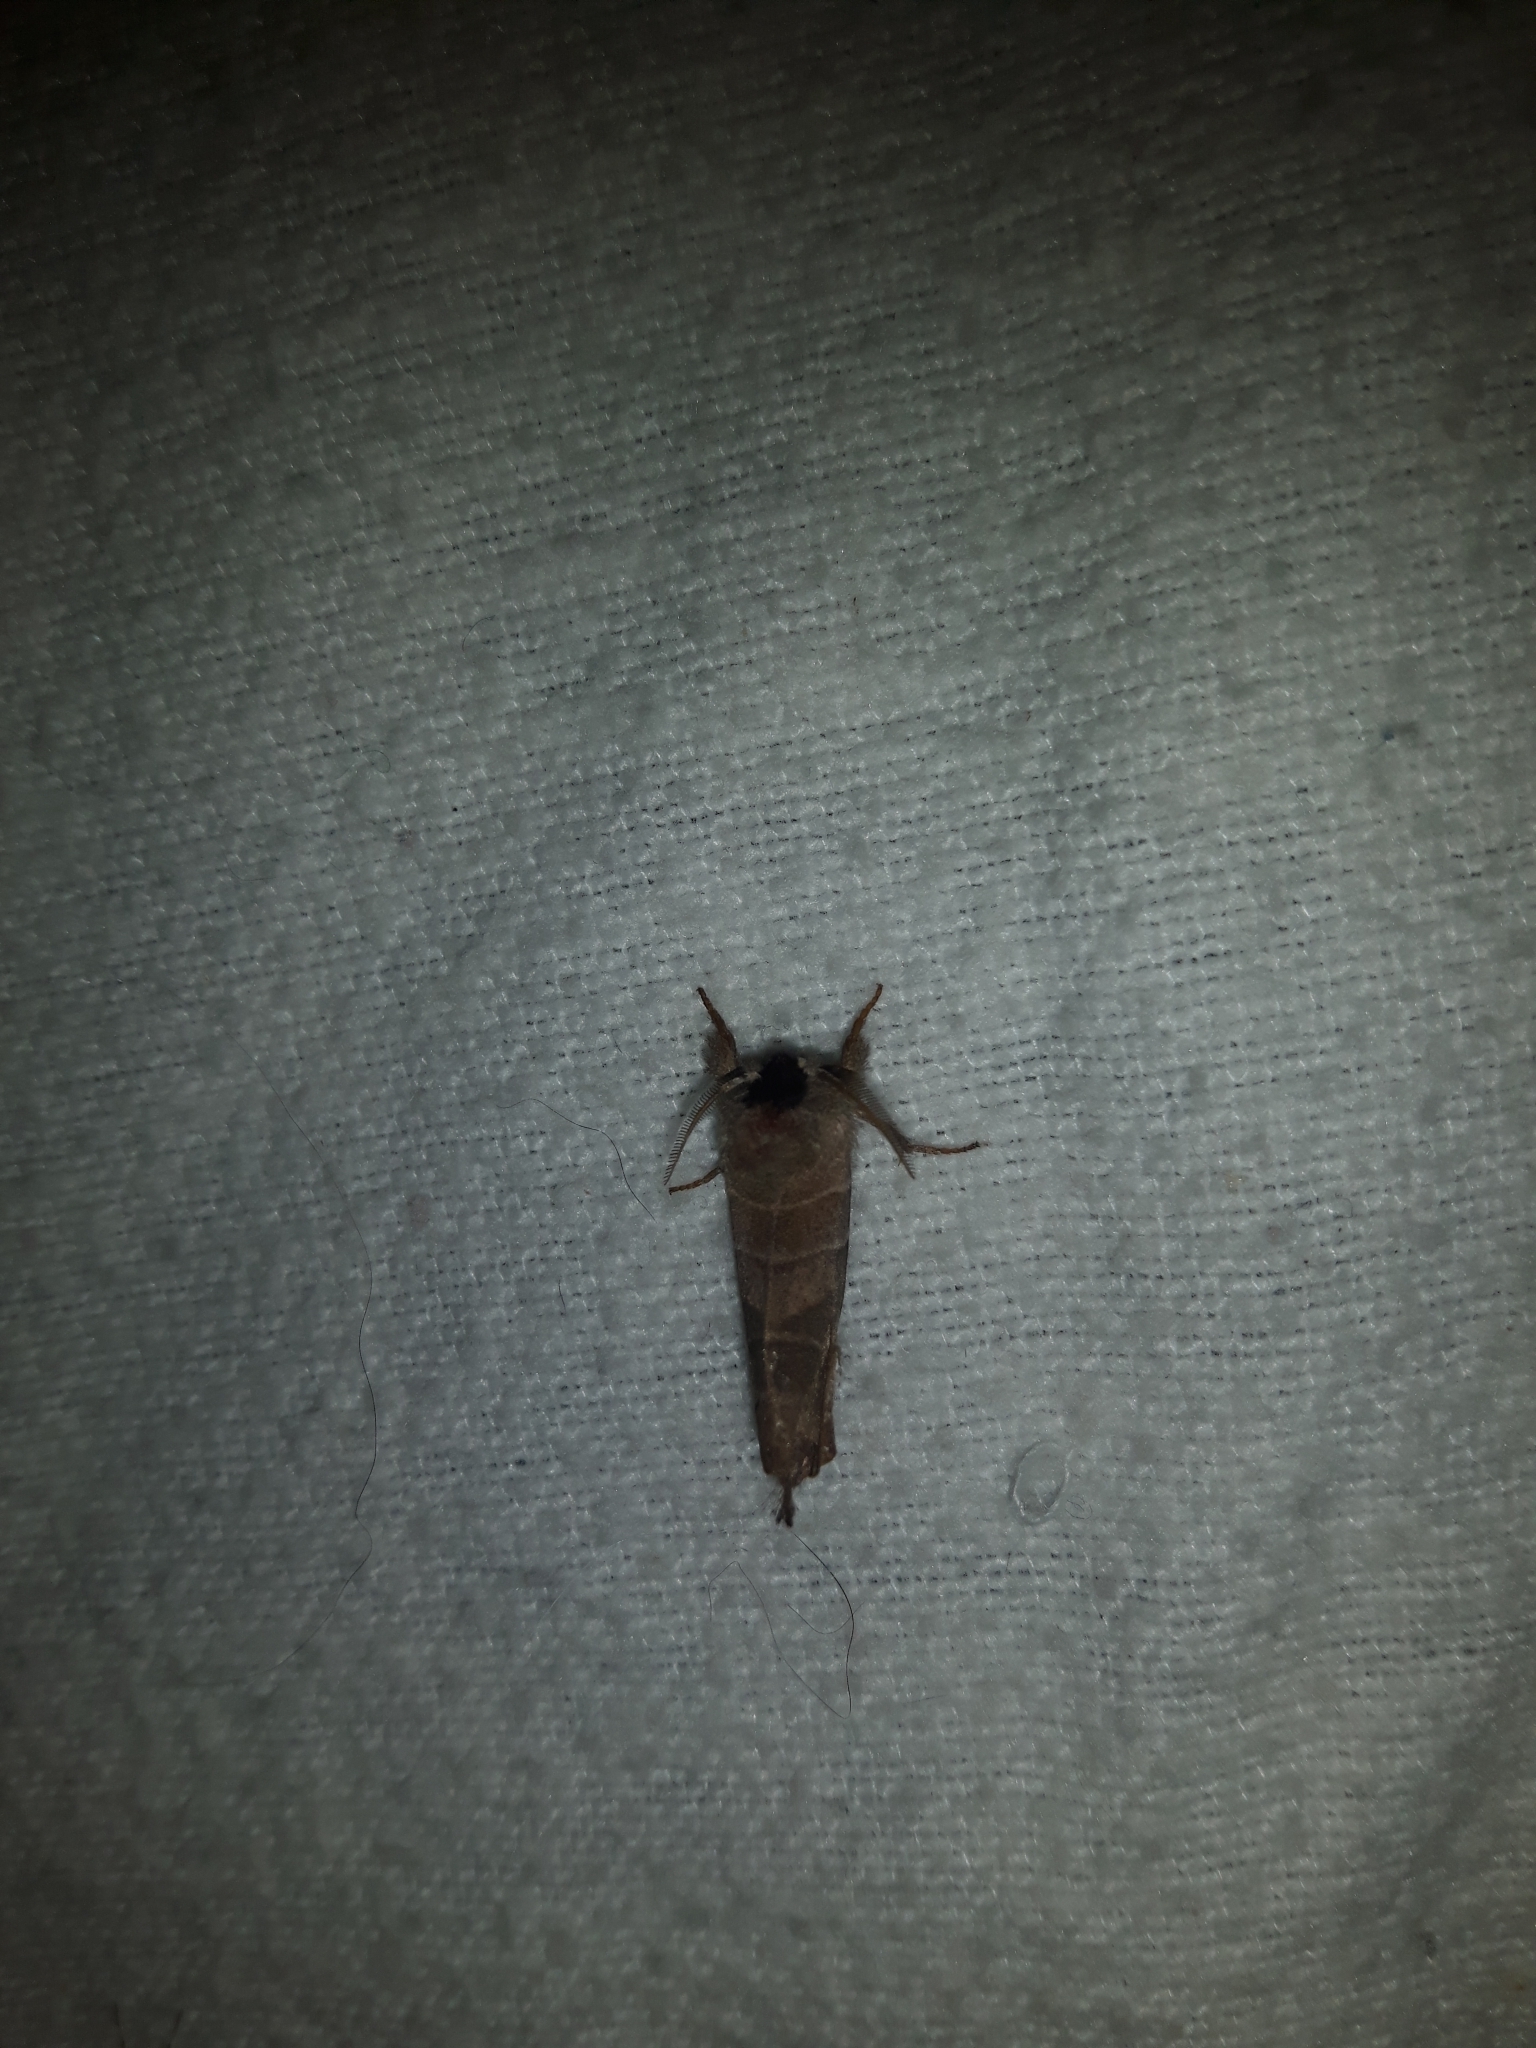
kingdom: Animalia
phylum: Arthropoda
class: Insecta
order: Lepidoptera
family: Notodontidae
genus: Clostera
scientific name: Clostera albosigma
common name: Sigmoid prominent
